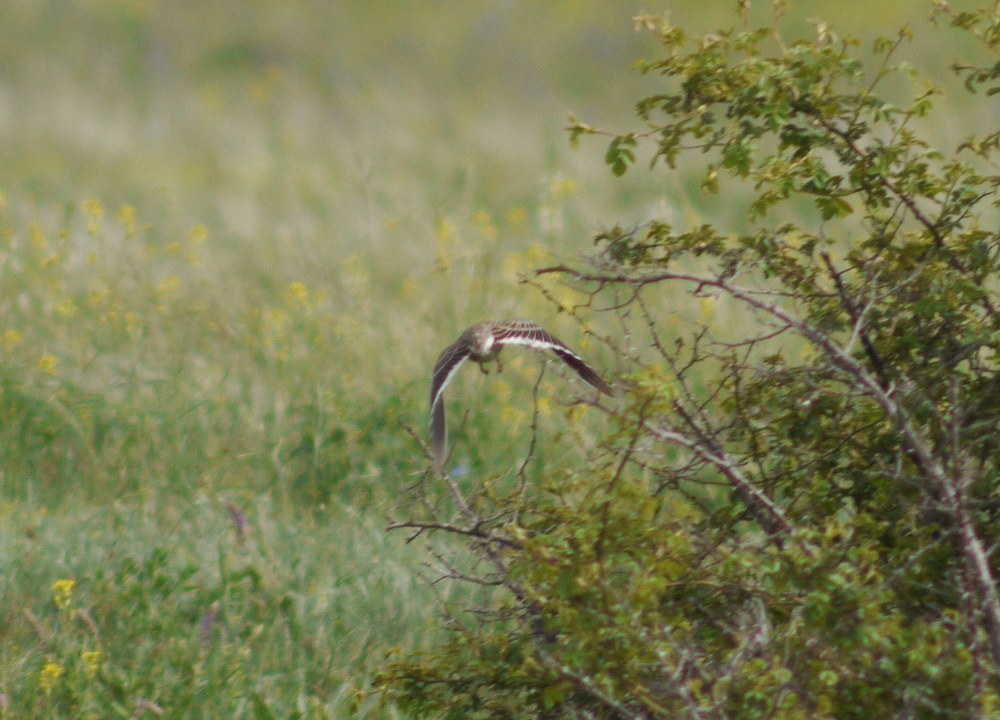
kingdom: Animalia
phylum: Chordata
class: Aves
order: Passeriformes
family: Alaudidae
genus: Melanocorypha
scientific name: Melanocorypha calandra
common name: Calandra lark
